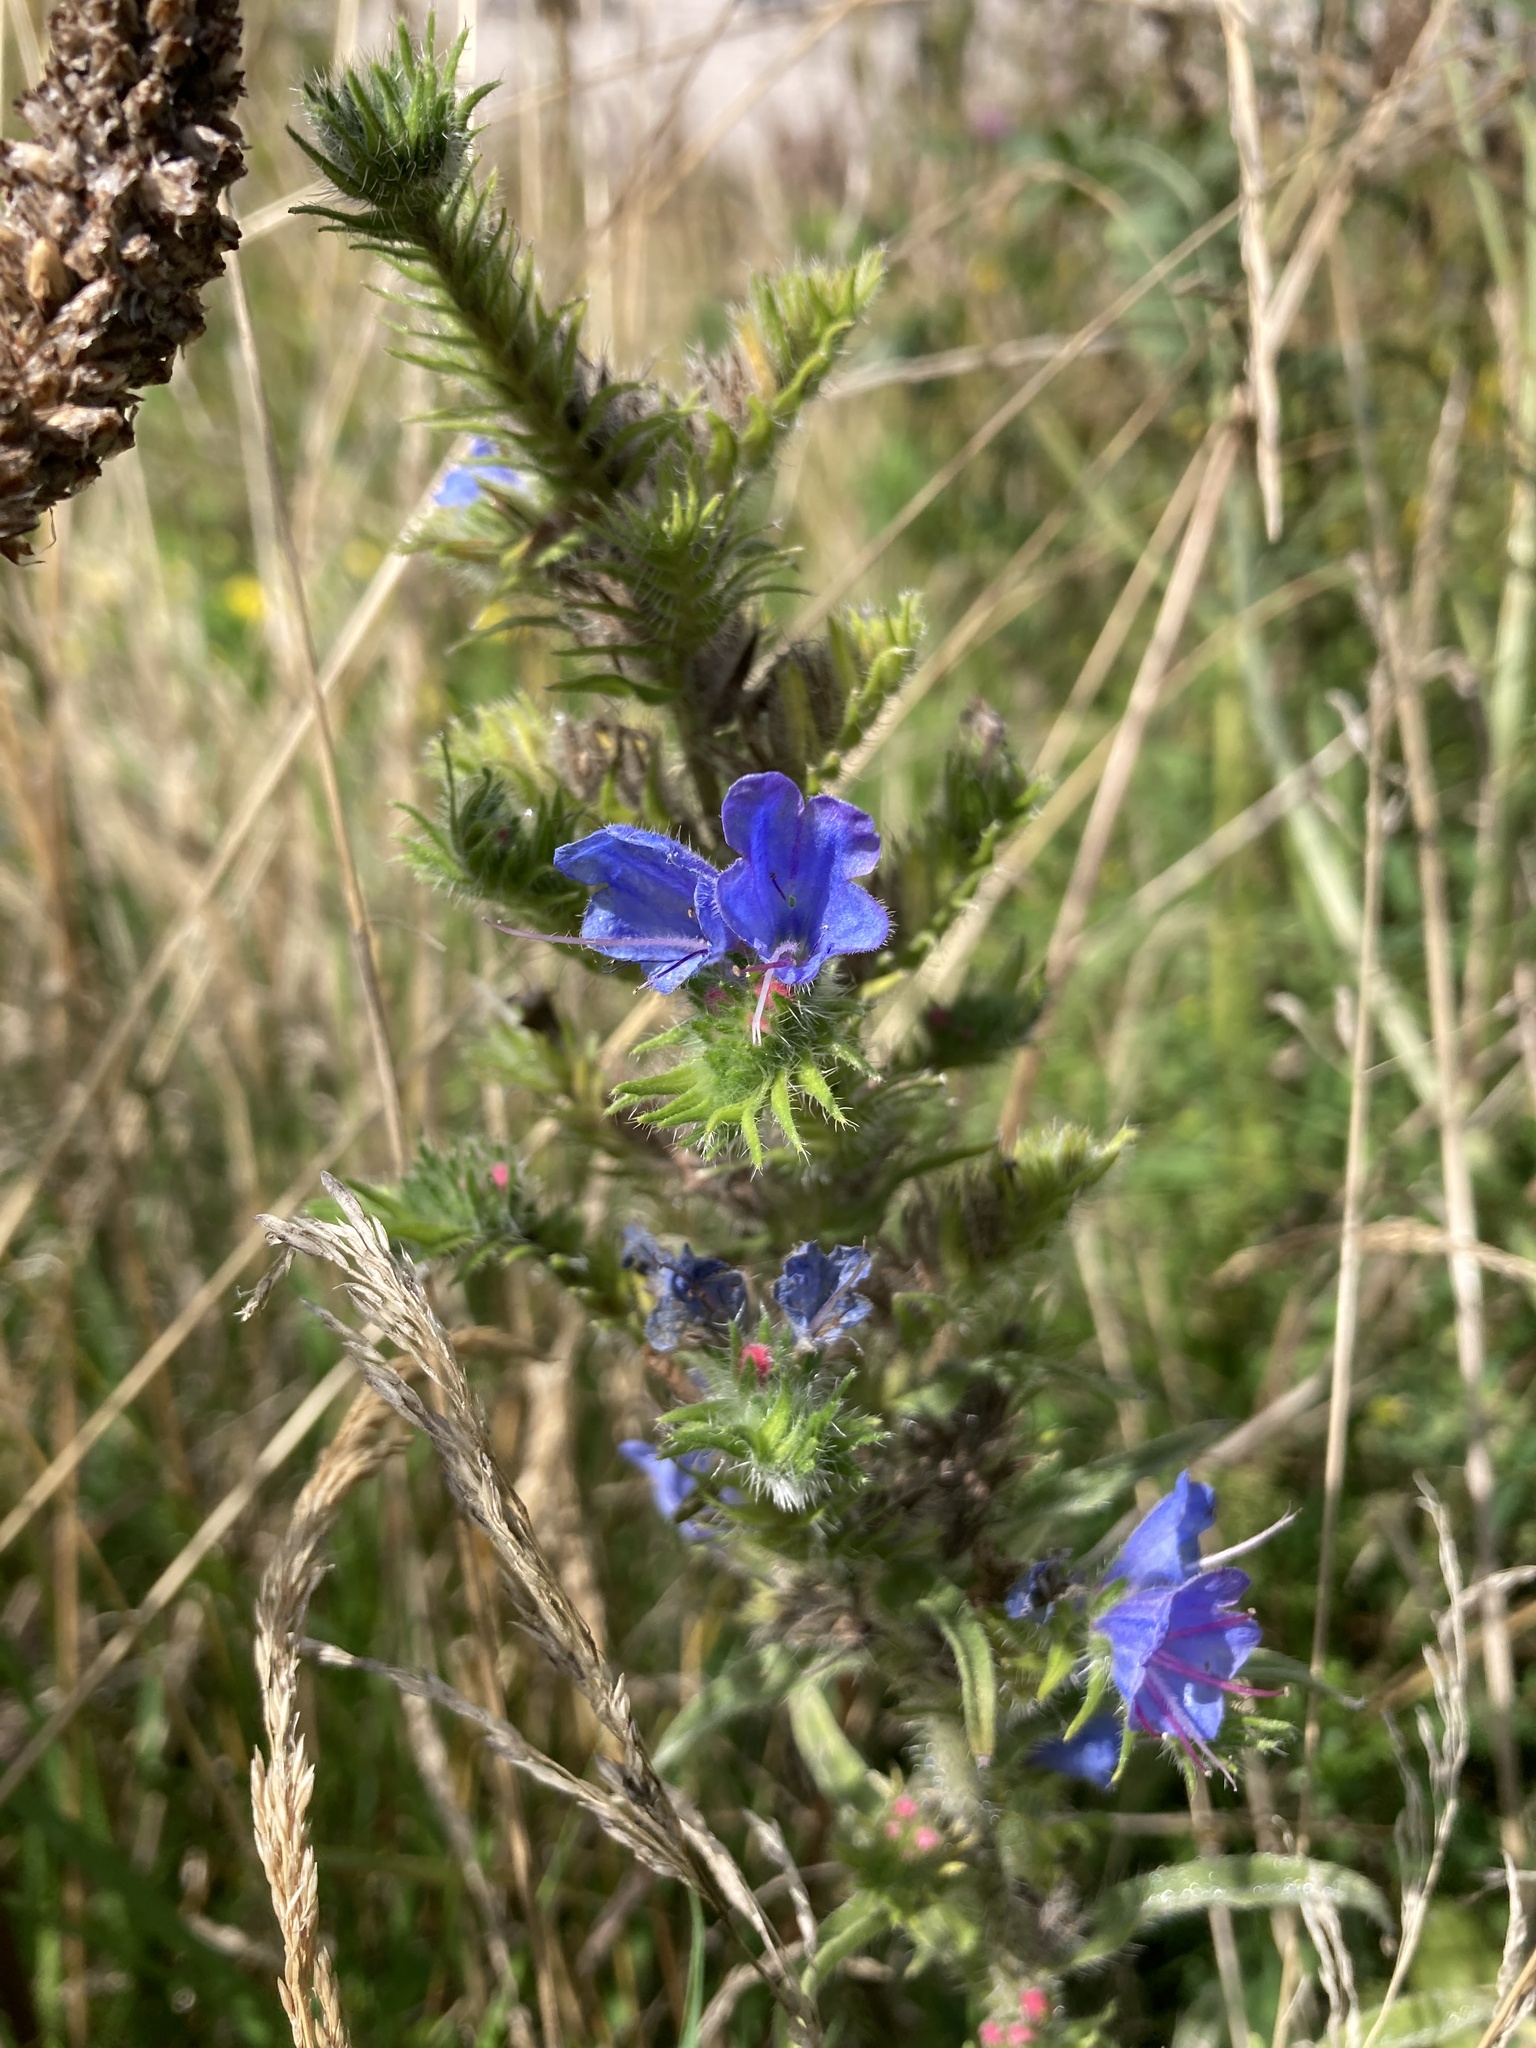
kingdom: Plantae
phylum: Tracheophyta
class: Magnoliopsida
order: Boraginales
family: Boraginaceae
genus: Echium
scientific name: Echium vulgare
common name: Common viper's bugloss
